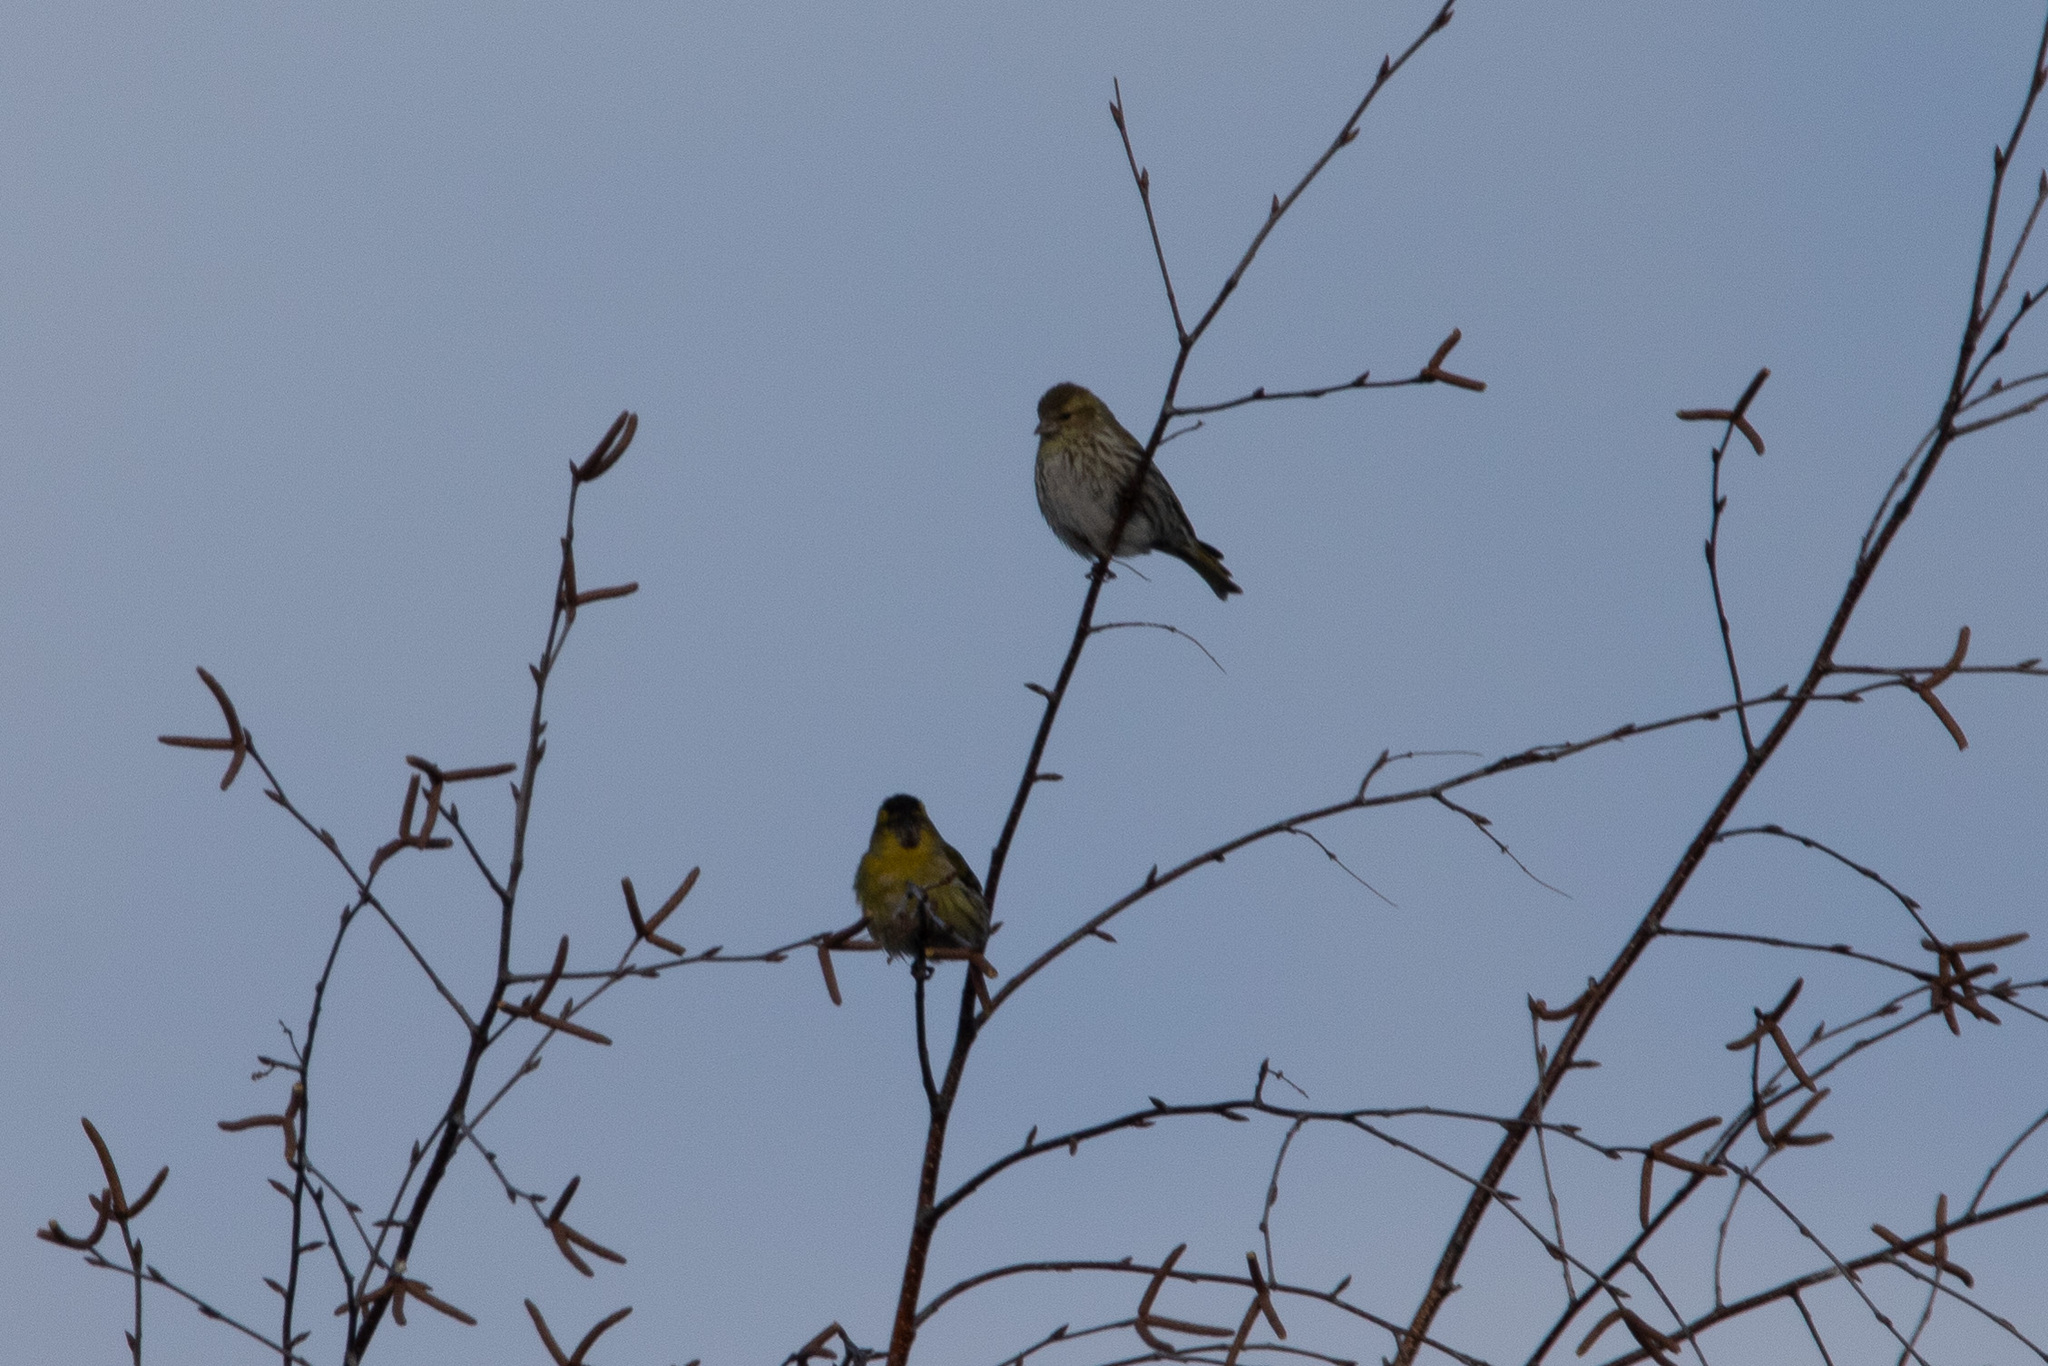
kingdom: Animalia
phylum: Chordata
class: Aves
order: Passeriformes
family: Fringillidae
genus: Spinus
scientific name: Spinus spinus
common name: Eurasian siskin
